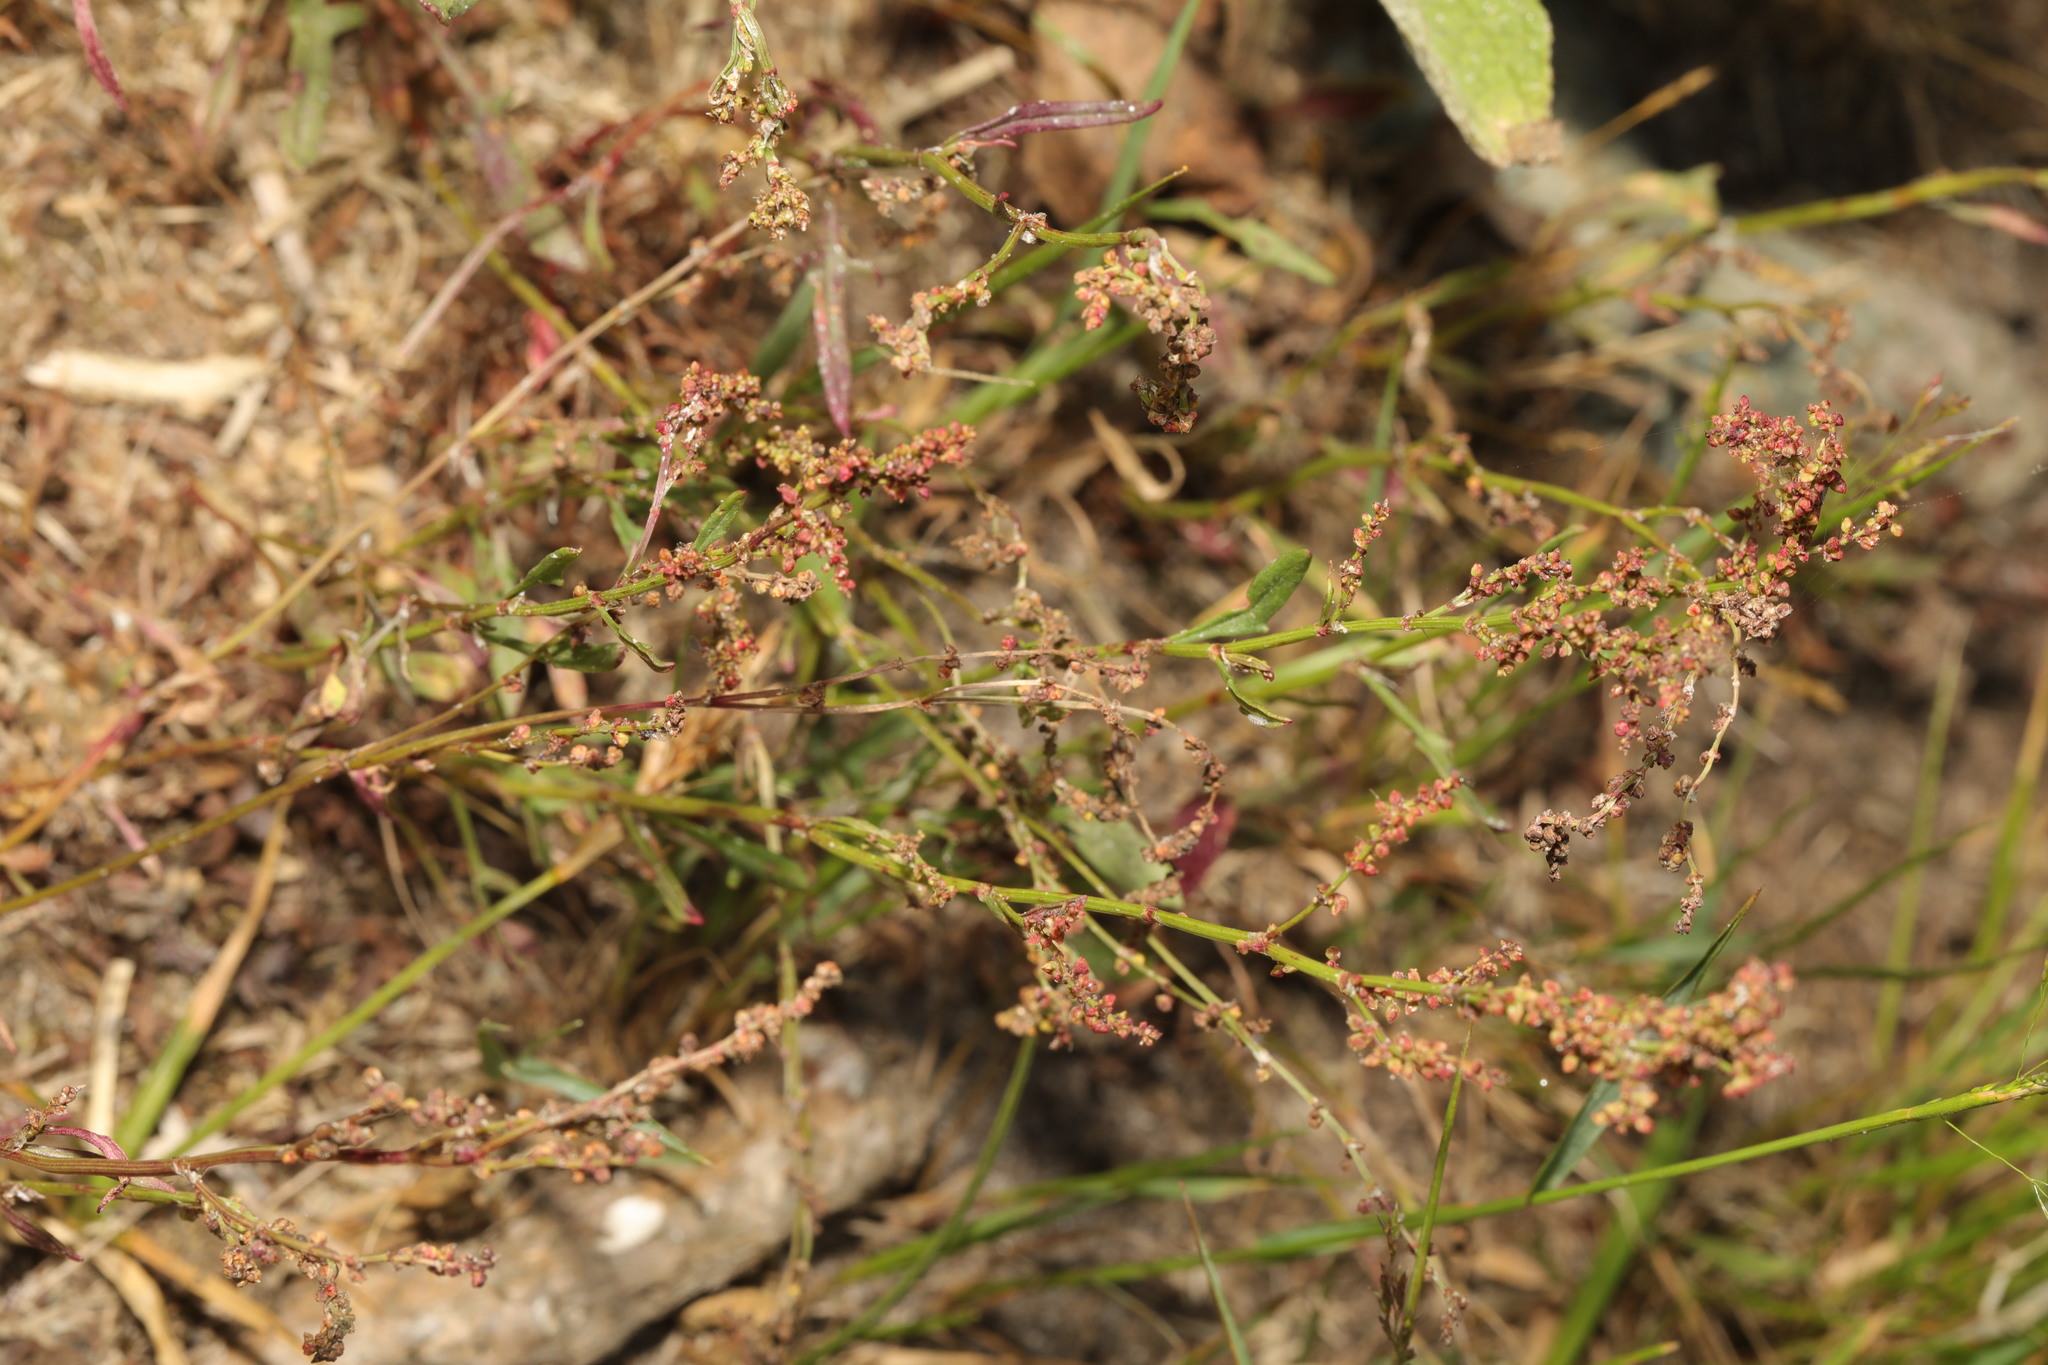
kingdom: Plantae
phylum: Tracheophyta
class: Magnoliopsida
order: Caryophyllales
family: Polygonaceae
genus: Rumex
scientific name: Rumex acetosella
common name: Common sheep sorrel
